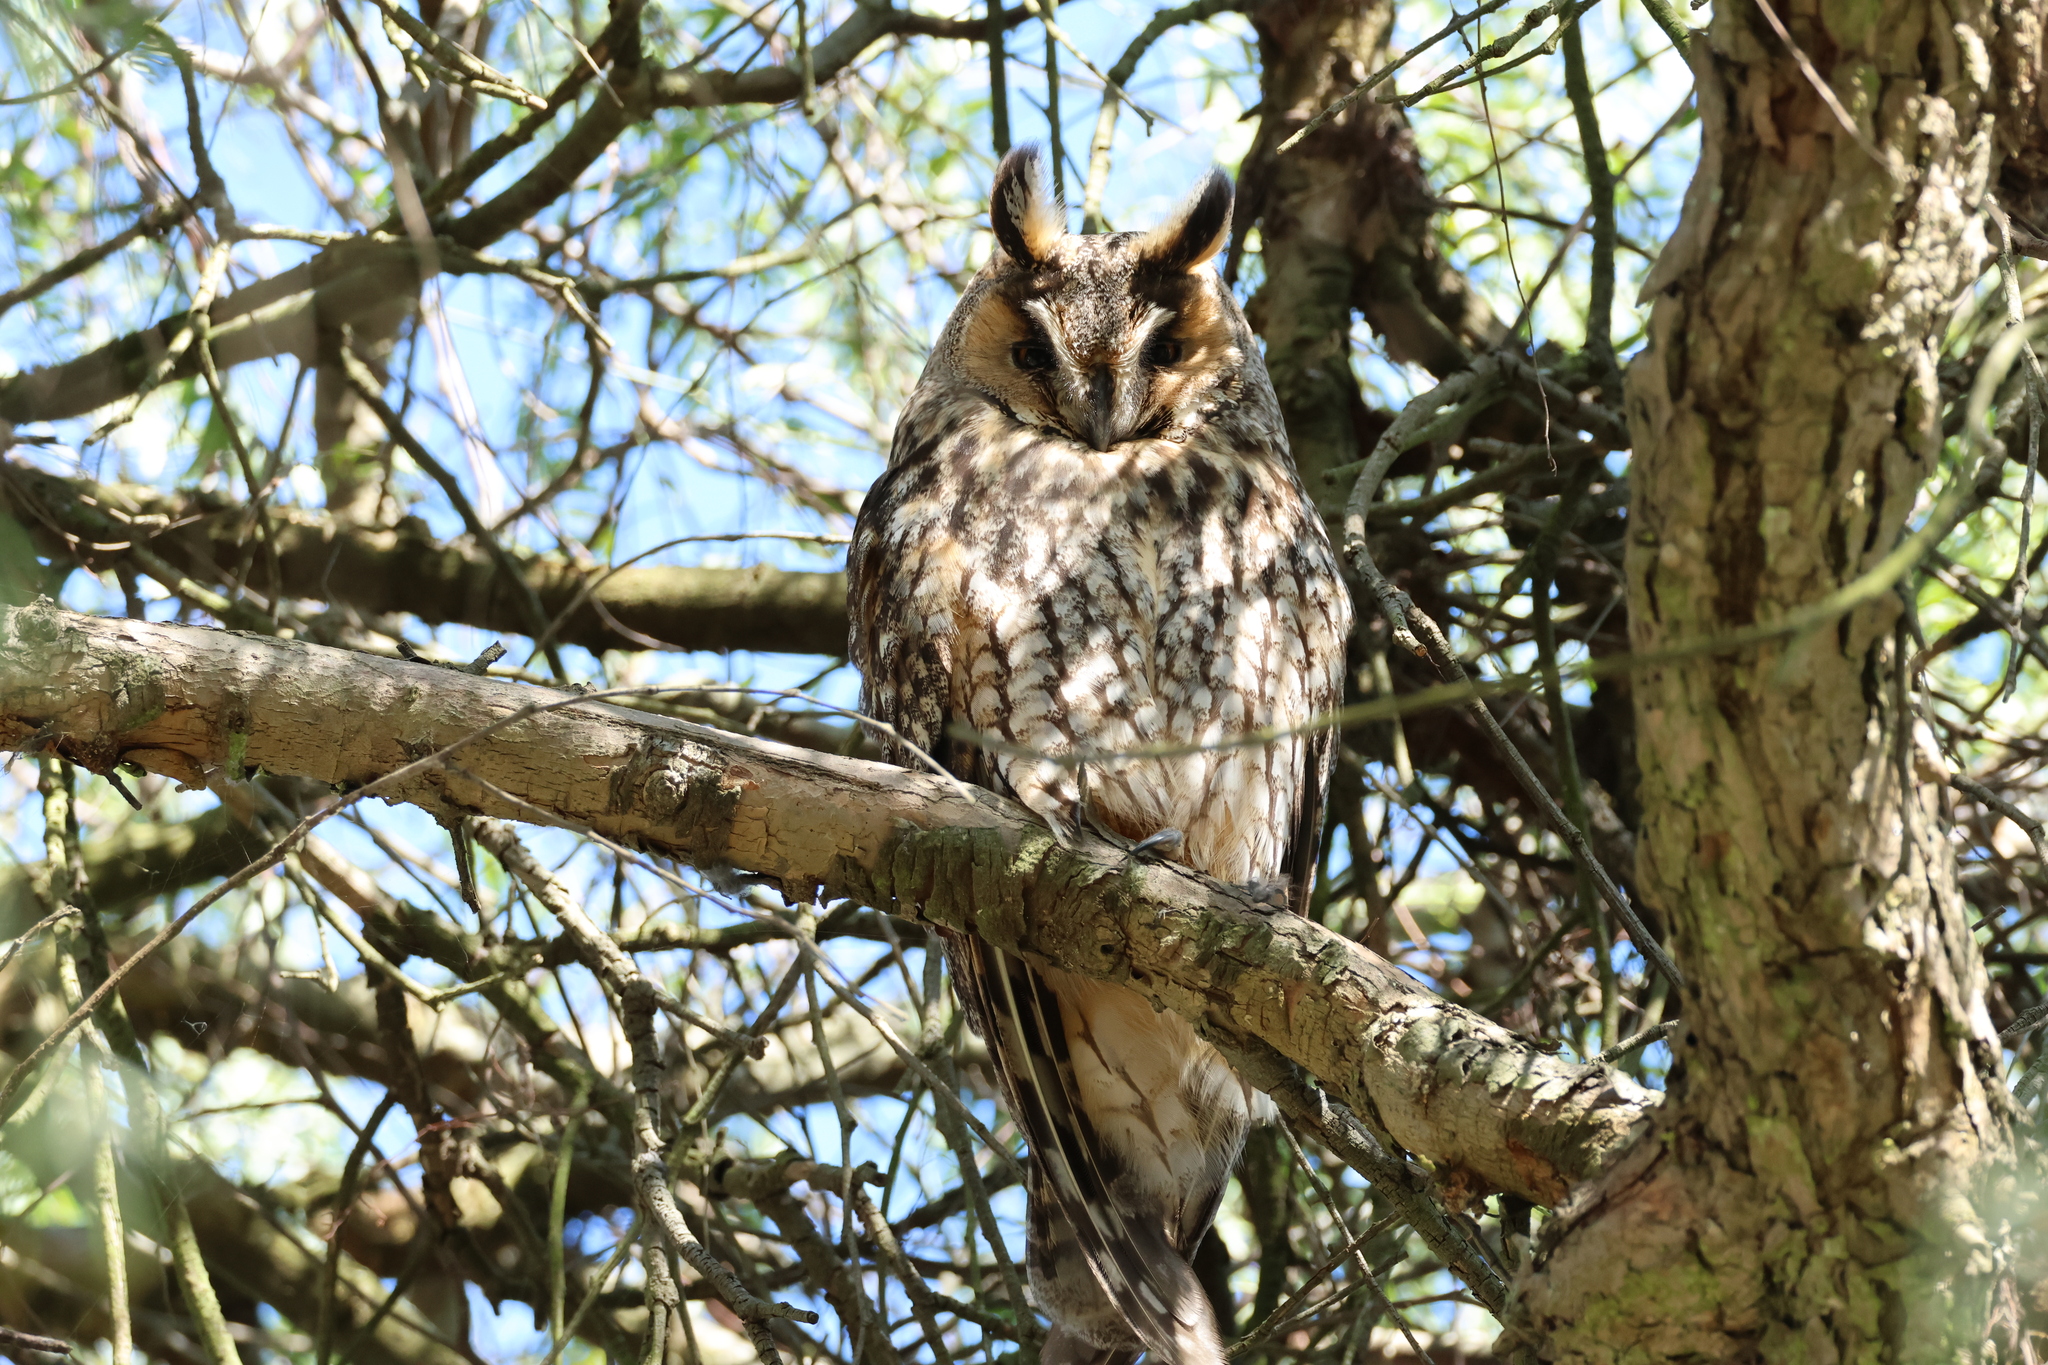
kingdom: Animalia
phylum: Chordata
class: Aves
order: Strigiformes
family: Strigidae
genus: Asio
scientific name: Asio otus
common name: Long-eared owl
